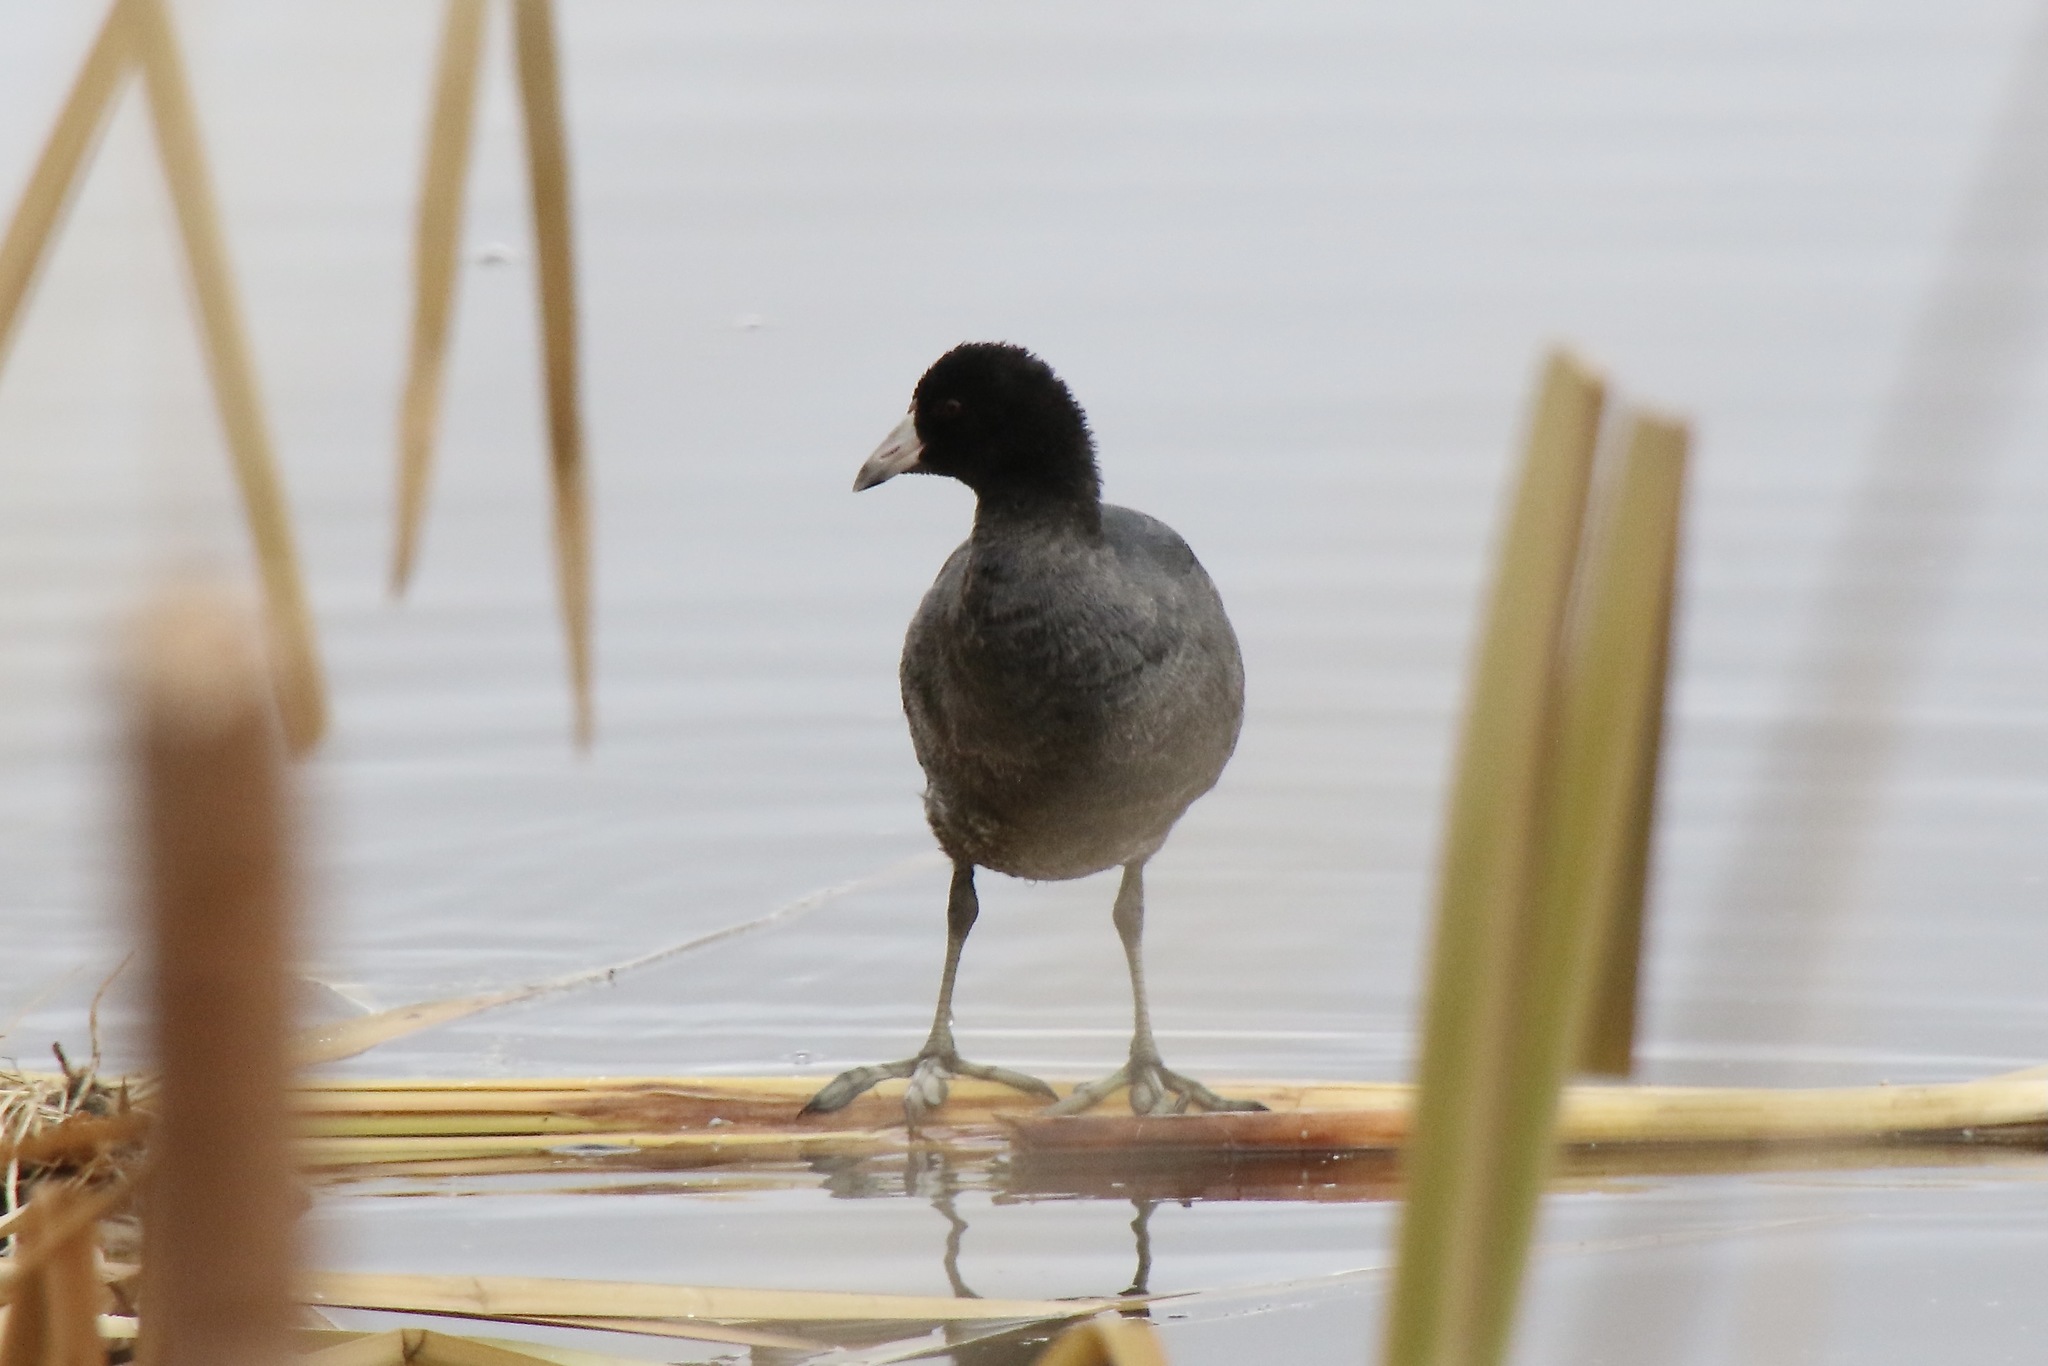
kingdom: Animalia
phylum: Chordata
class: Aves
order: Gruiformes
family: Rallidae
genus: Fulica
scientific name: Fulica americana
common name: American coot
